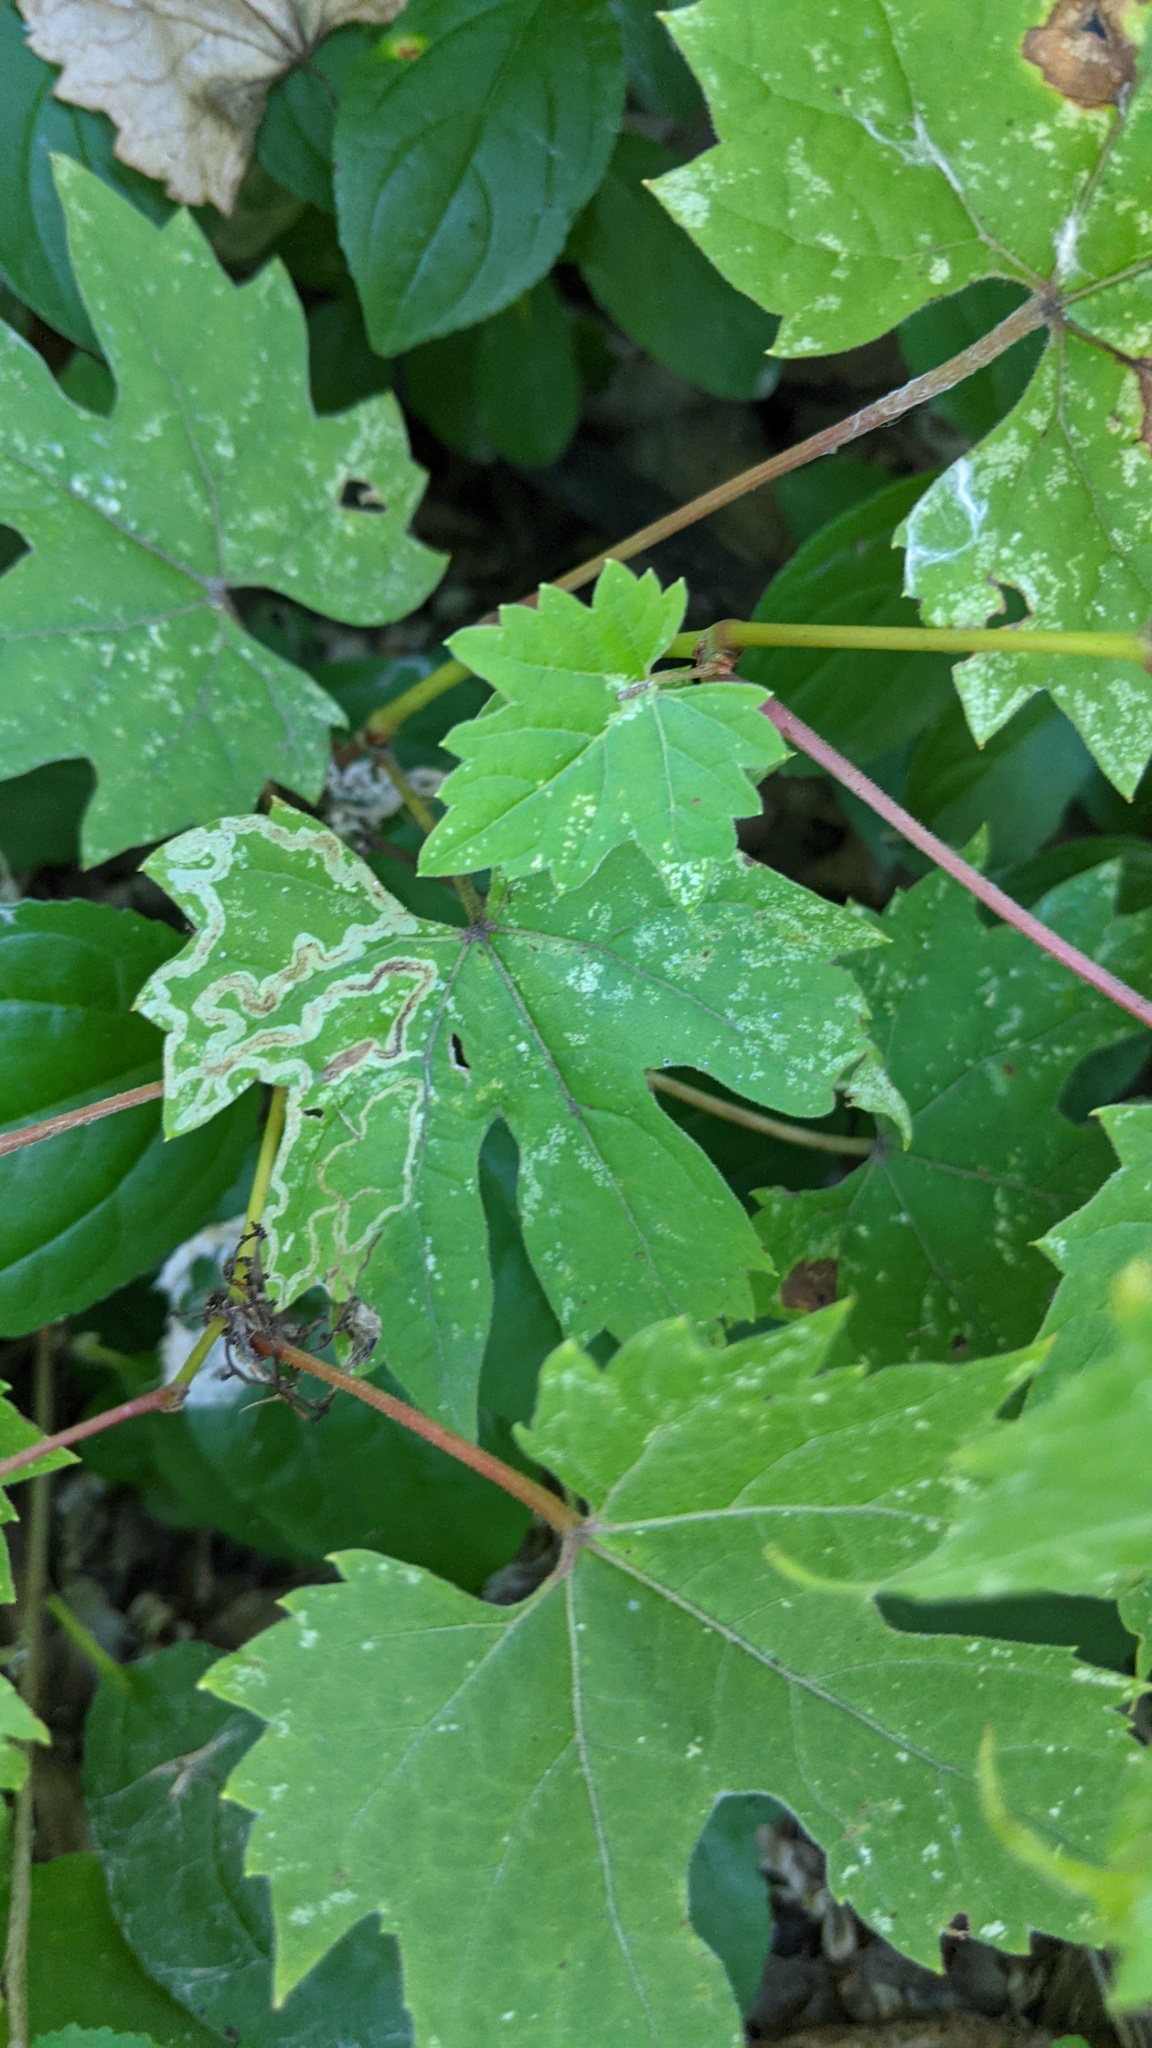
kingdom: Animalia
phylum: Arthropoda
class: Insecta
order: Lepidoptera
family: Gracillariidae
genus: Phyllocnistis
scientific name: Phyllocnistis vitifoliella
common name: Grape leaf-miner moth
